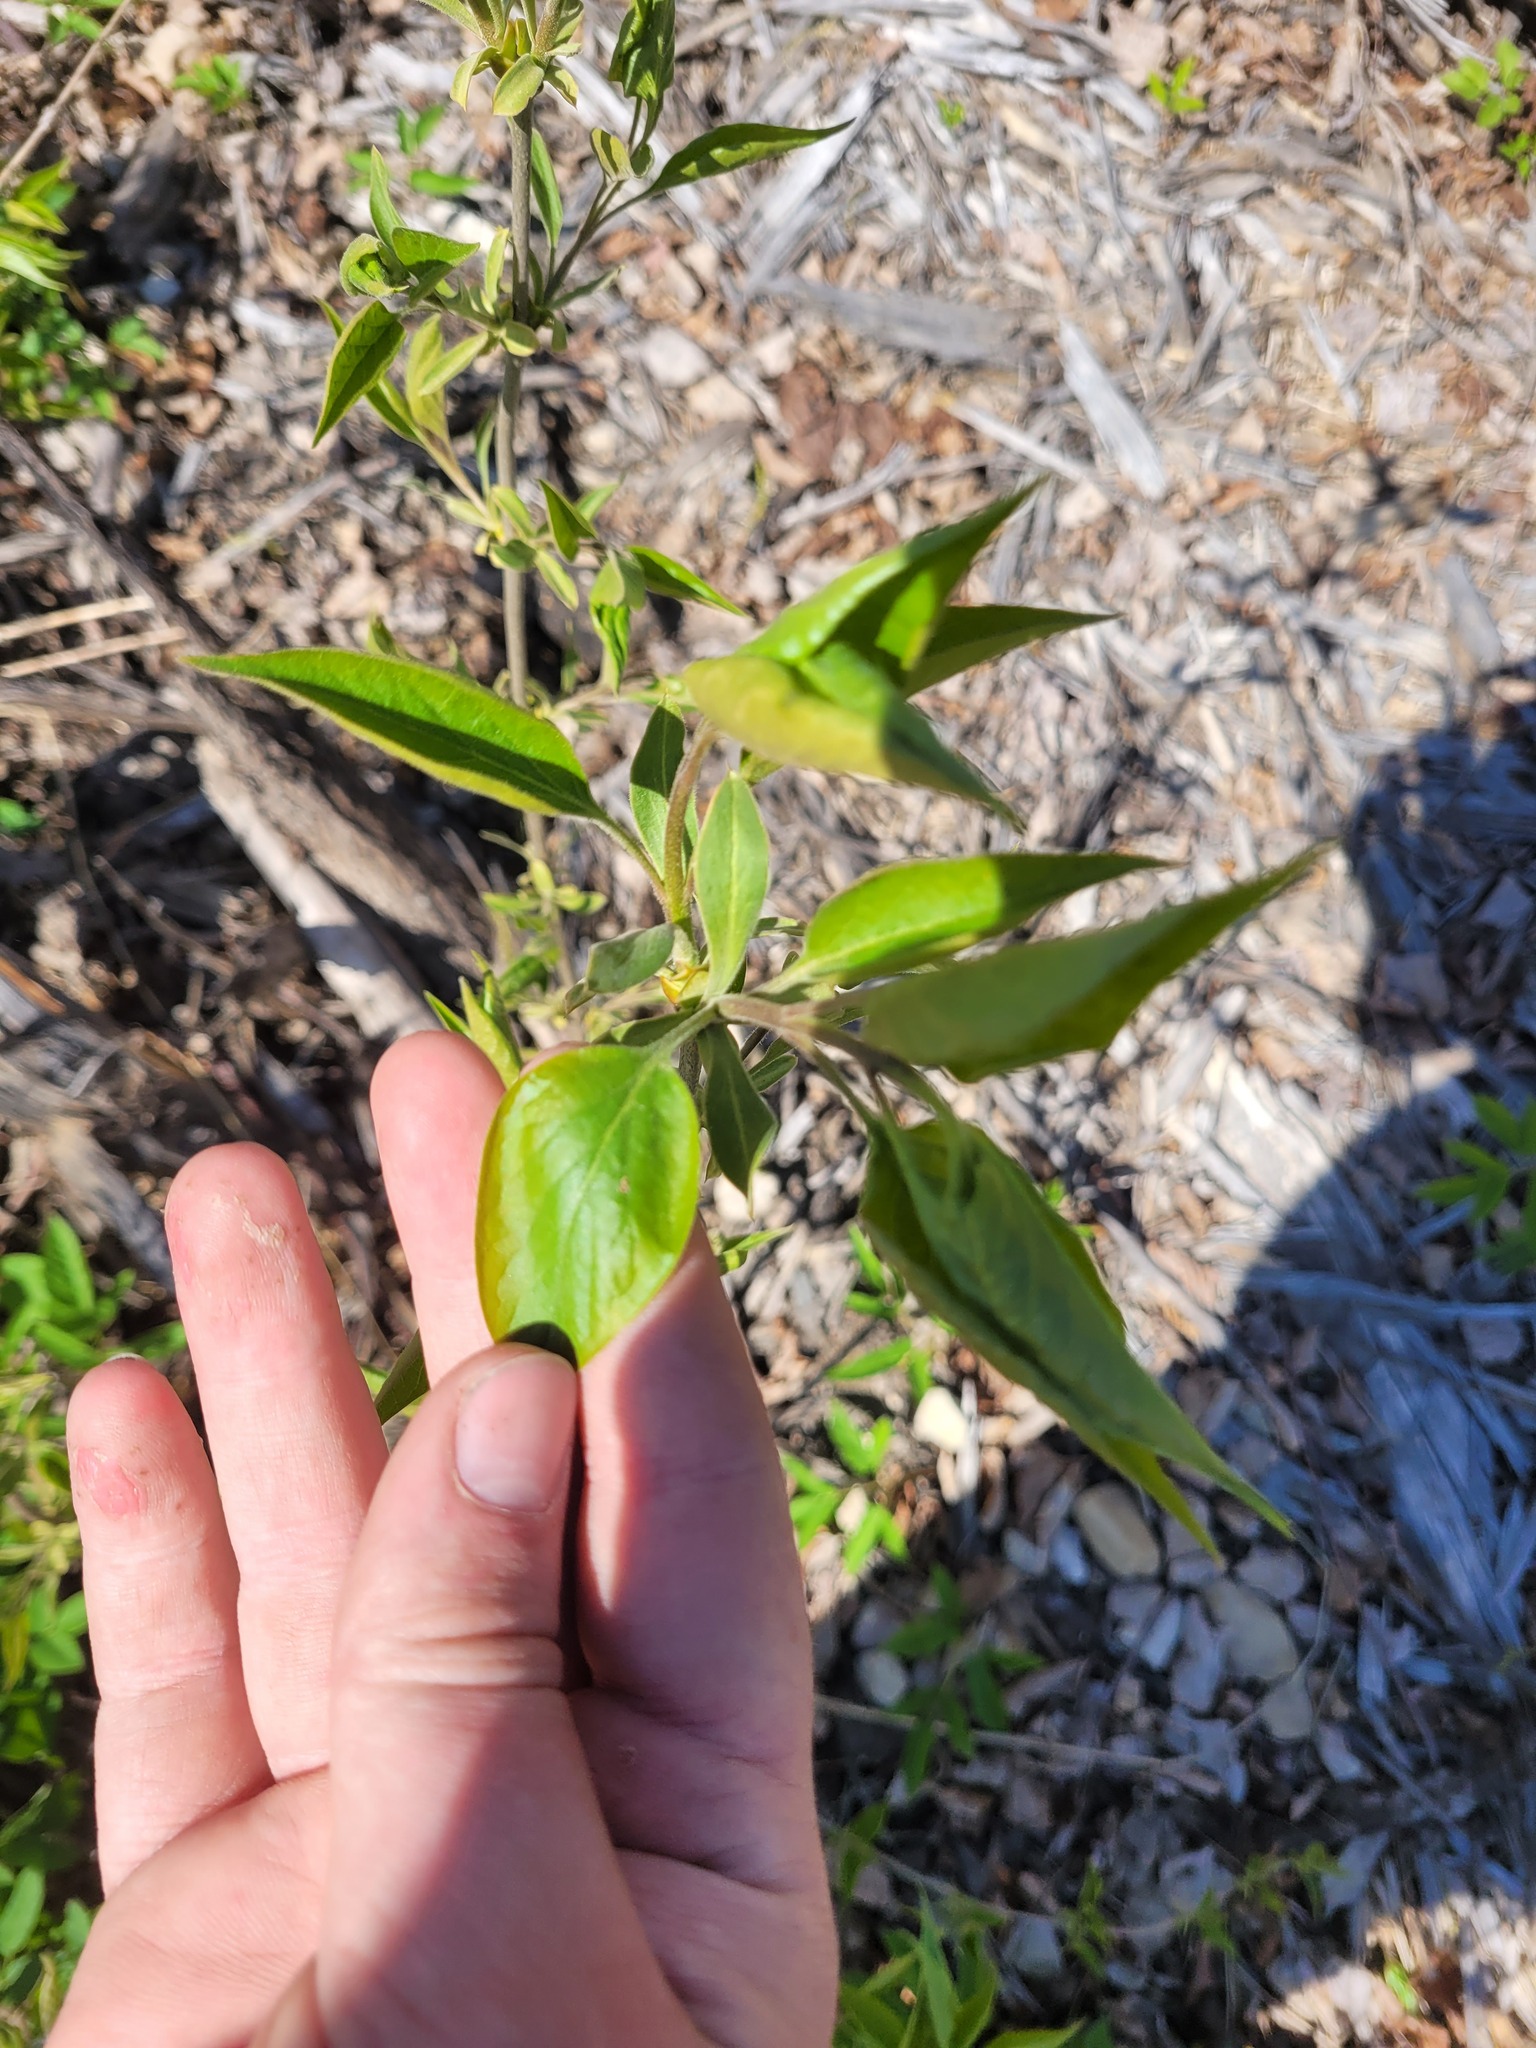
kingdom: Plantae
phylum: Tracheophyta
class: Magnoliopsida
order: Lamiales
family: Oleaceae
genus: Syringa
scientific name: Syringa vulgaris
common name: Common lilac
